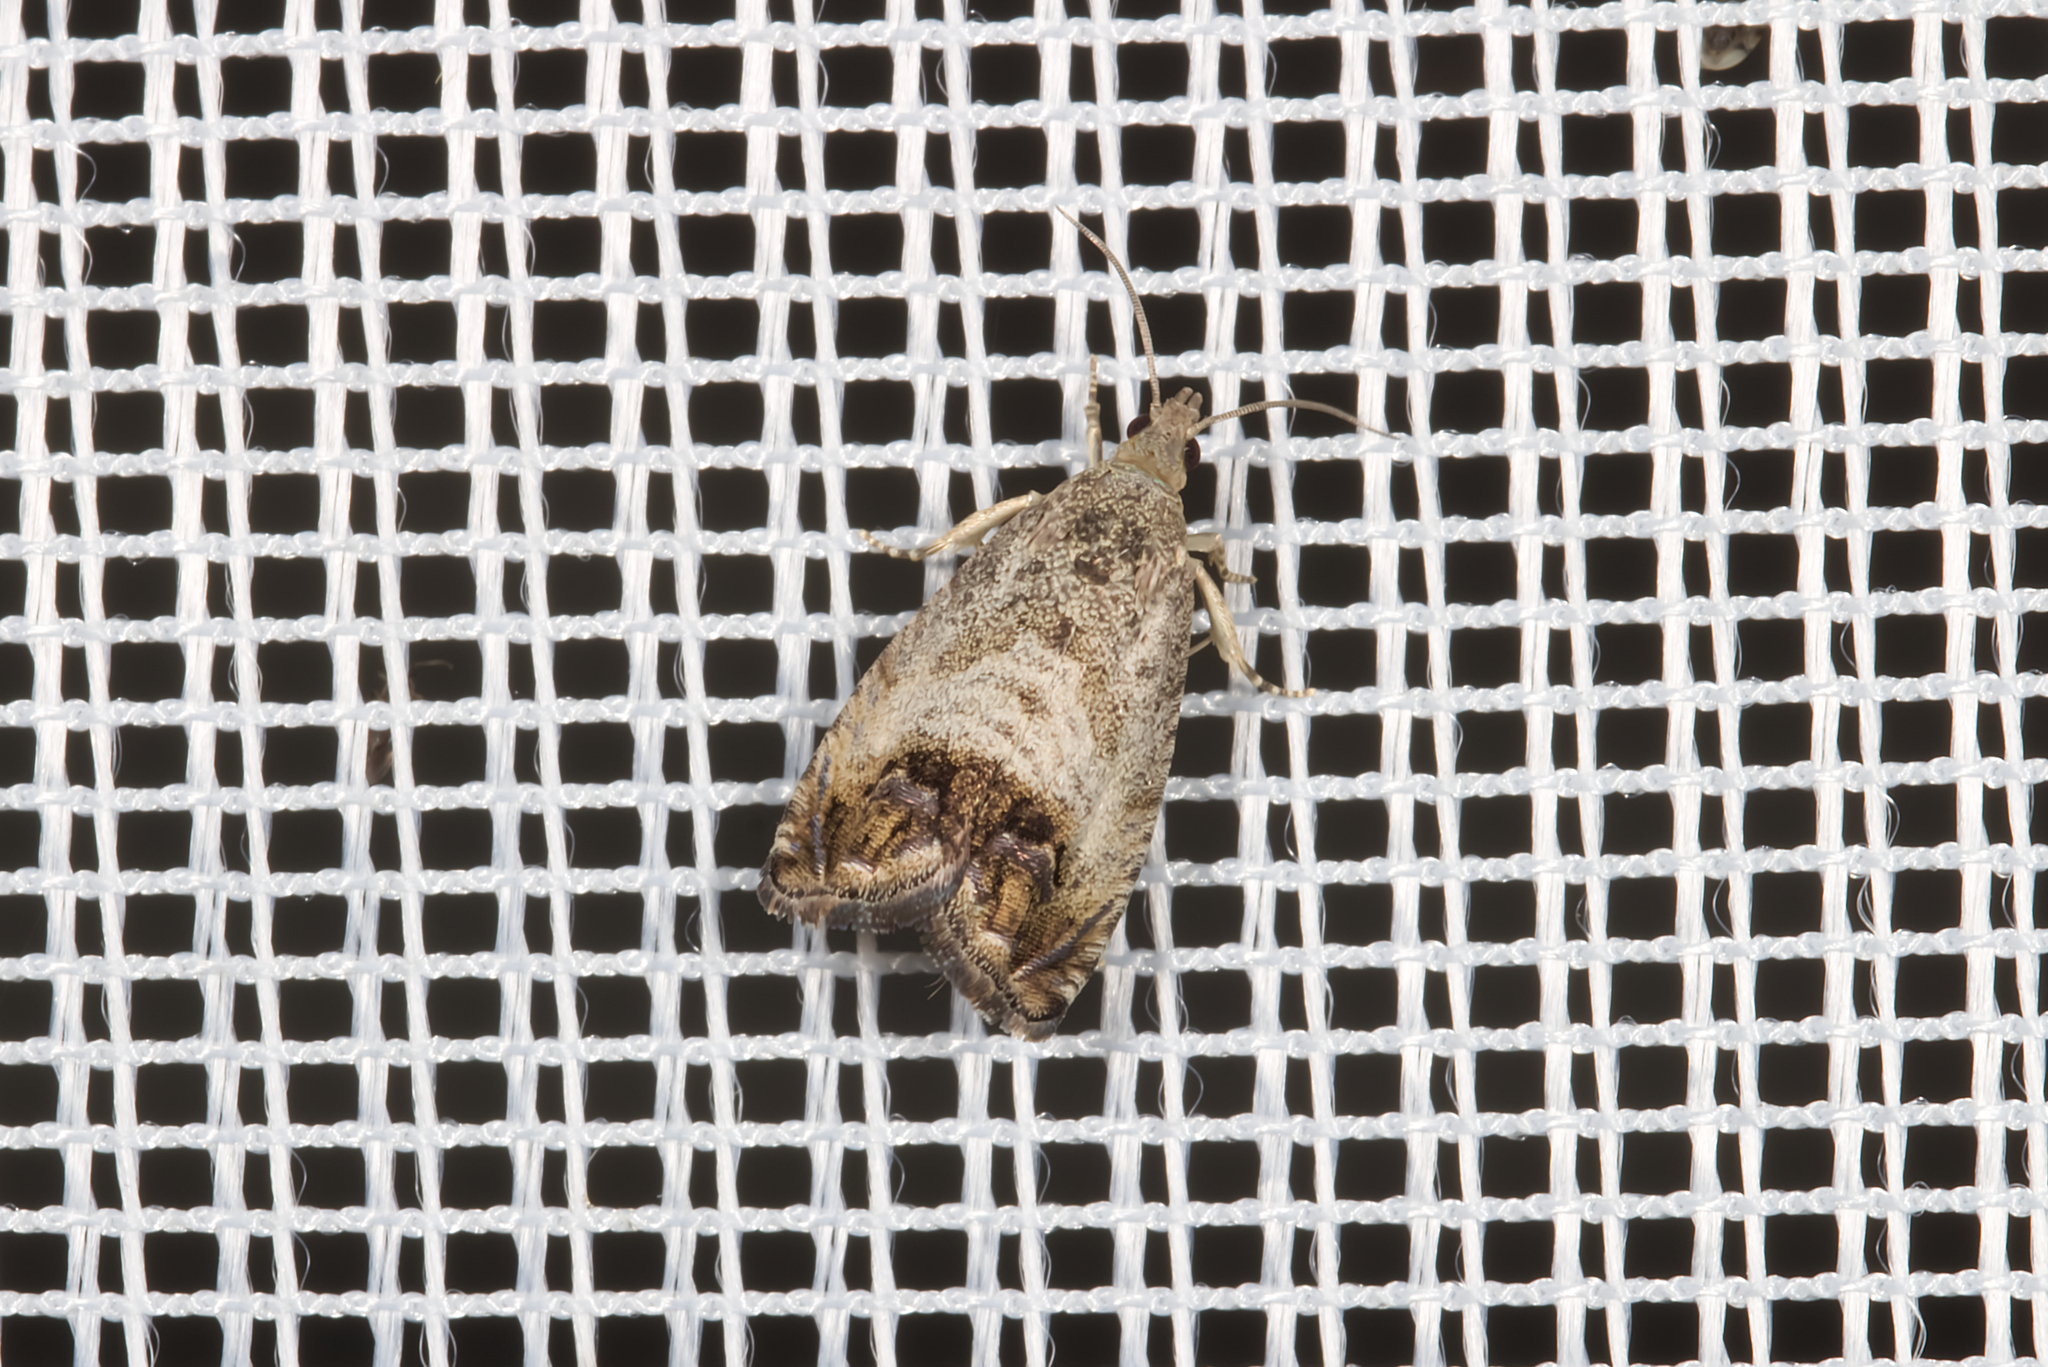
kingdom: Animalia
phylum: Arthropoda
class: Insecta
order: Lepidoptera
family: Tortricidae
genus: Cydia
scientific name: Cydia splendana
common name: De: kastanienwickler, eichenwickler es: oruga de la castaña fr: carpocapse des châtaignes it: cidia o tortrice tardiva delle castagne pt: bichado das castanhas gb: acorn moth, chestnut fruit tortrix
